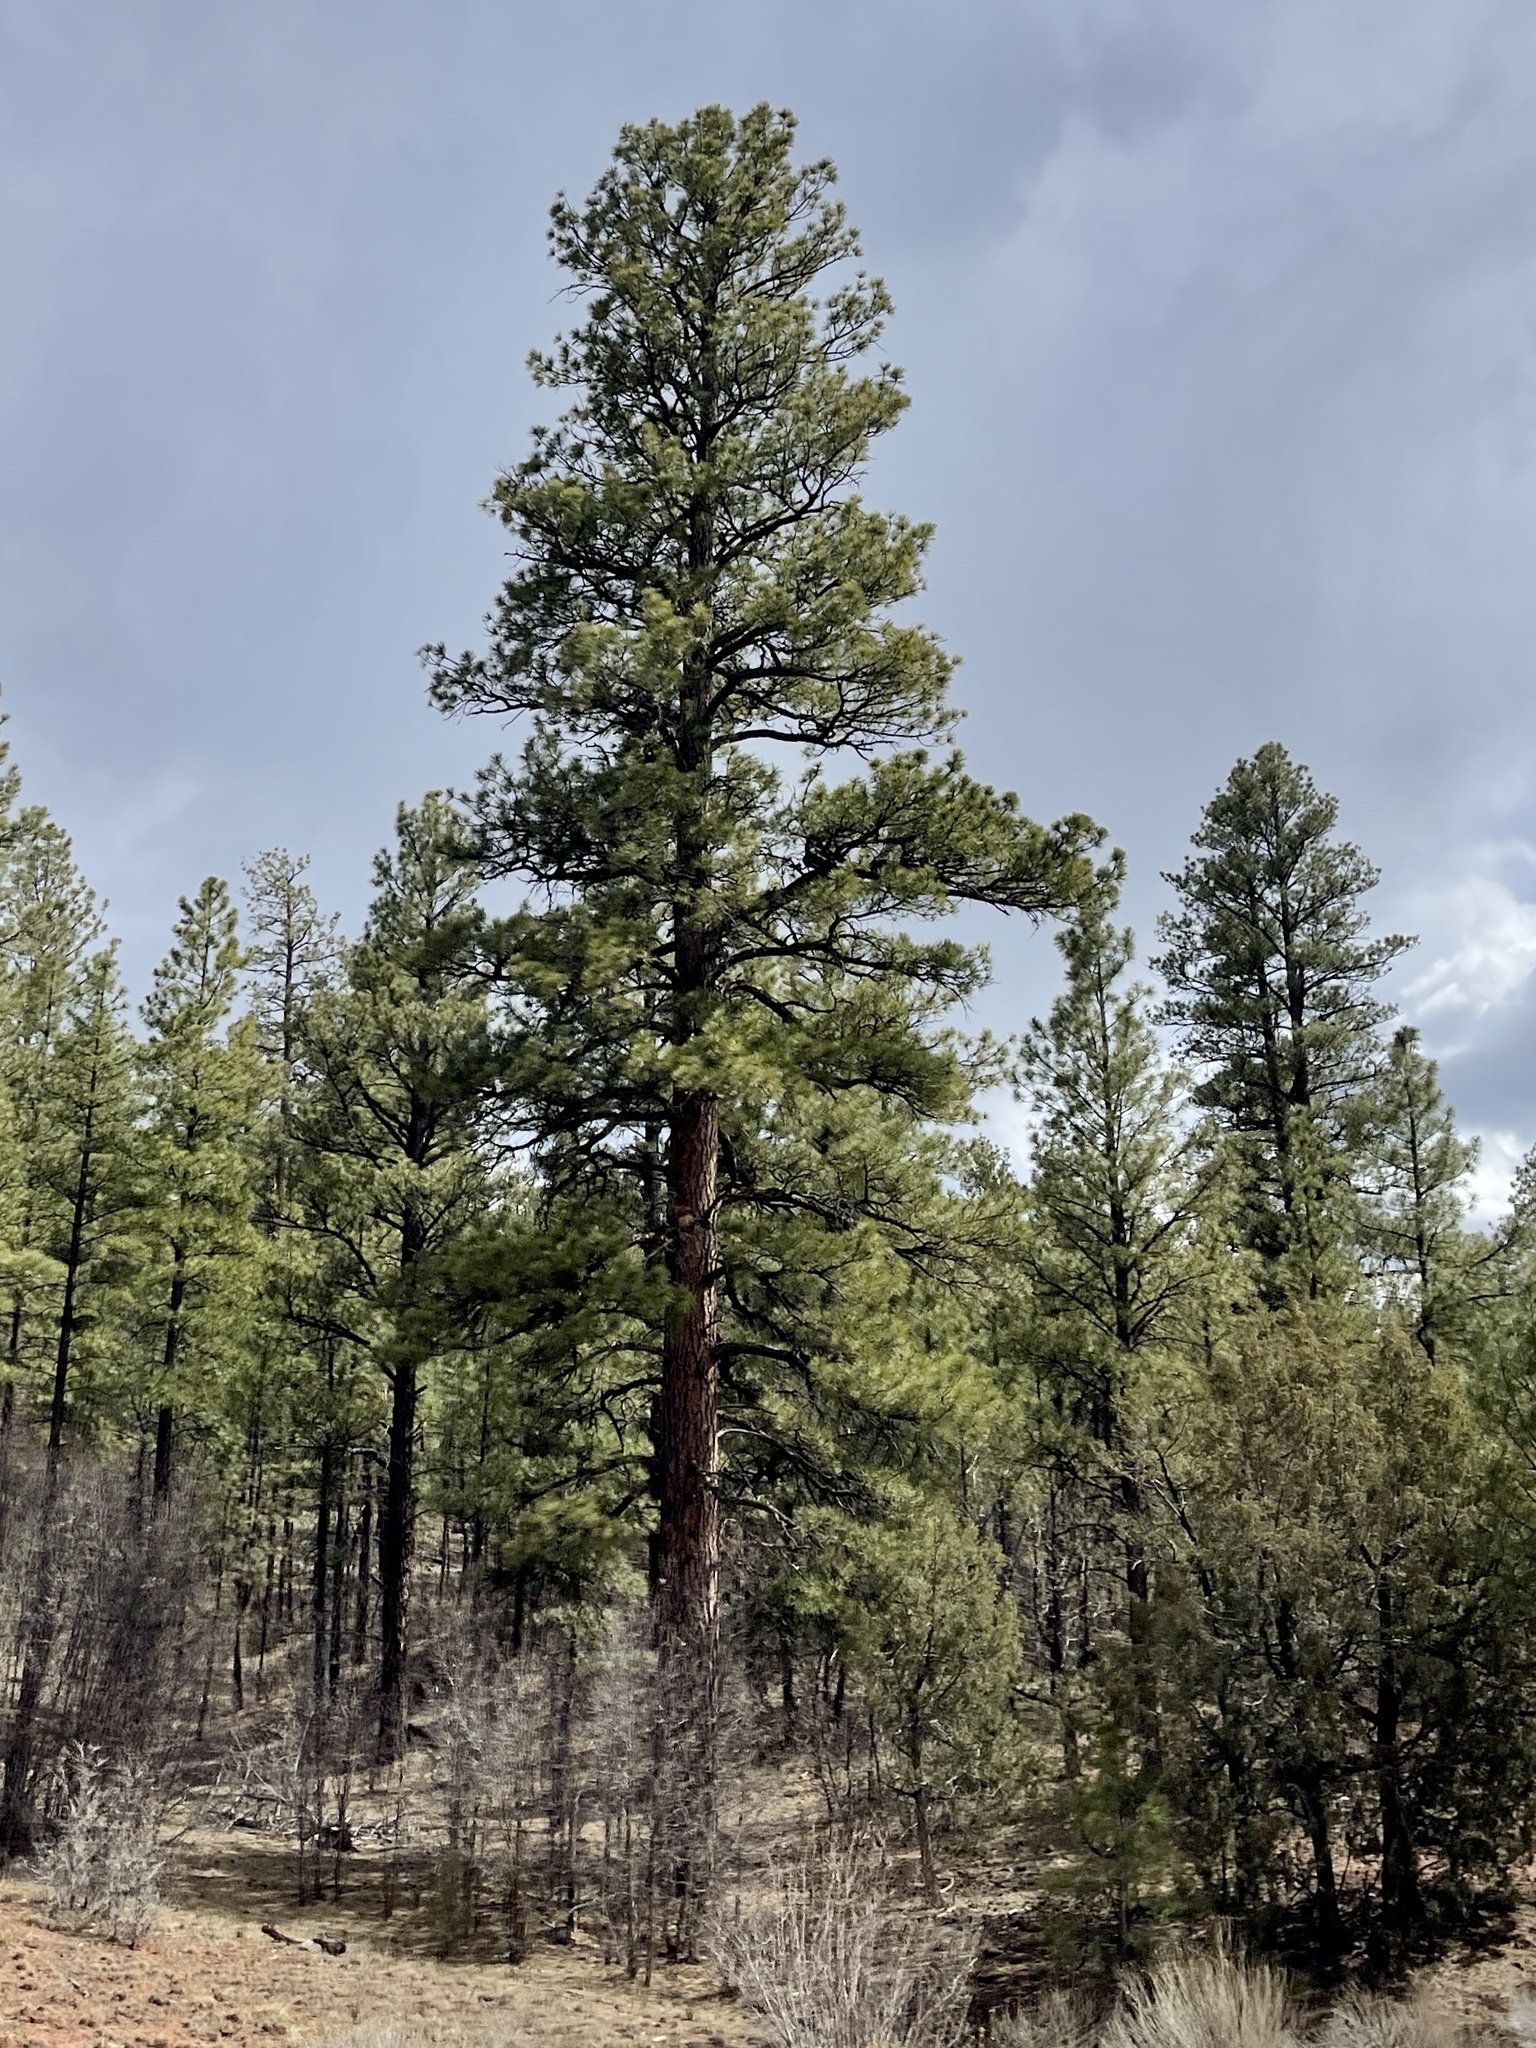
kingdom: Plantae
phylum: Tracheophyta
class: Pinopsida
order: Pinales
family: Pinaceae
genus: Pinus
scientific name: Pinus ponderosa
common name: Western yellow-pine
